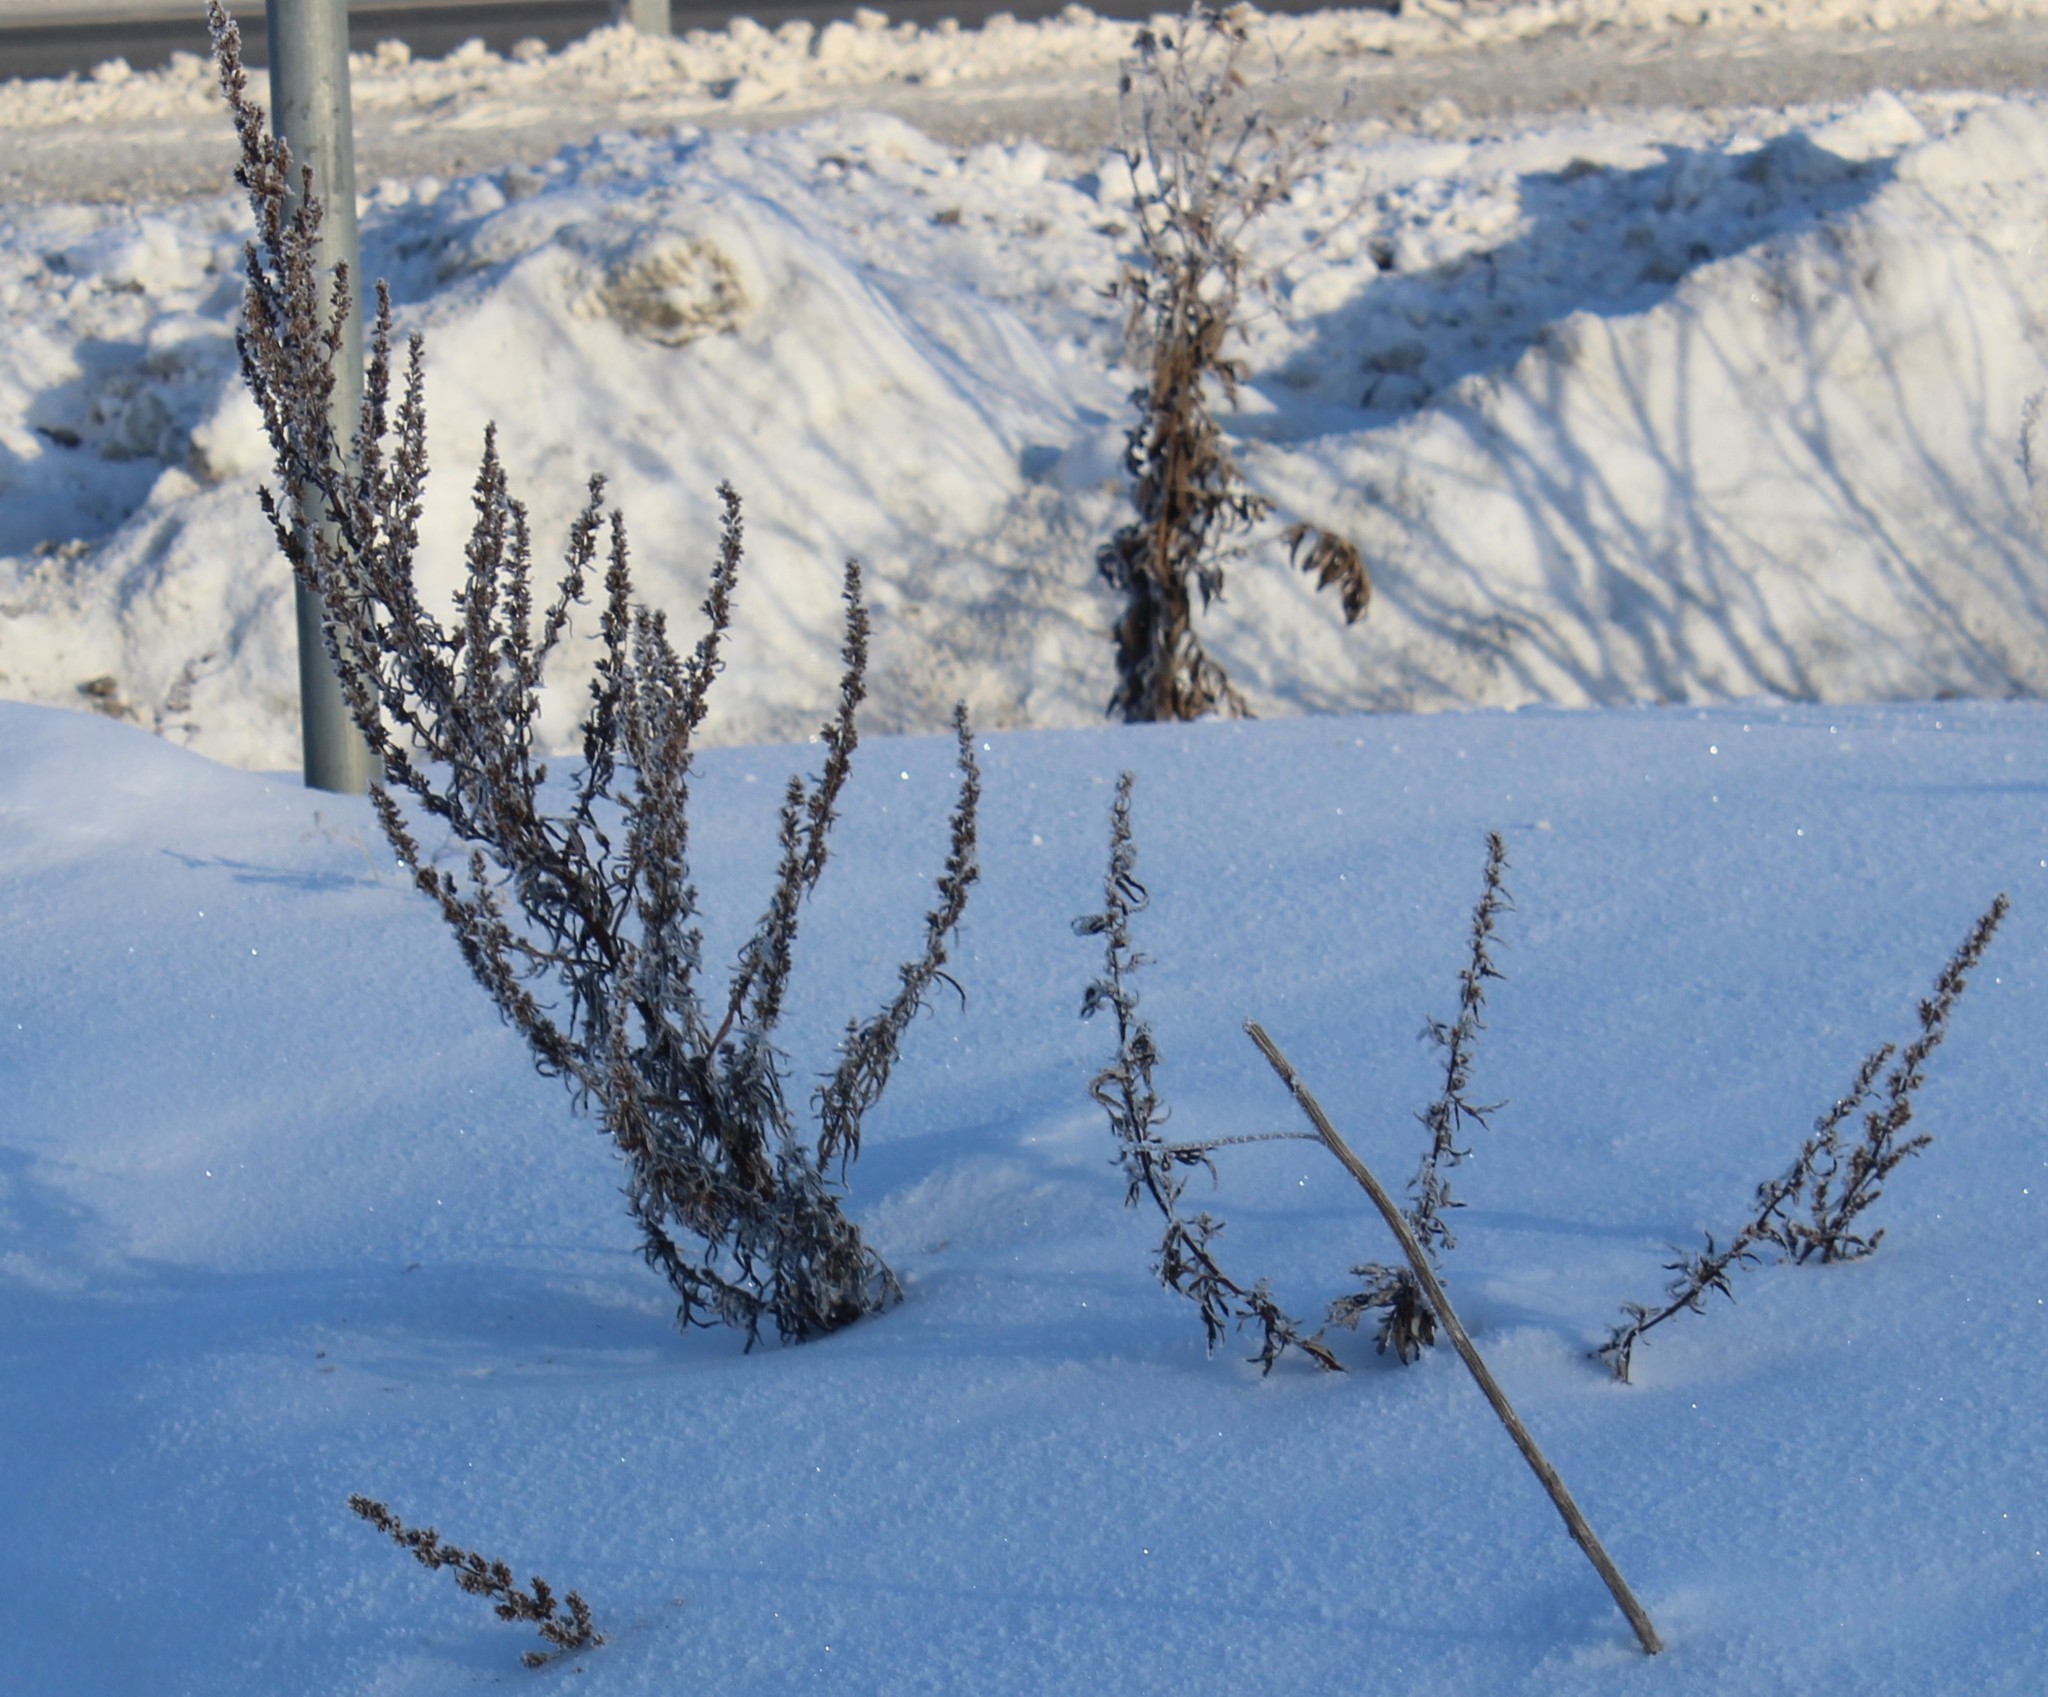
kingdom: Plantae
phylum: Tracheophyta
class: Magnoliopsida
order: Asterales
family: Asteraceae
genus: Artemisia
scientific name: Artemisia vulgaris
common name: Mugwort
